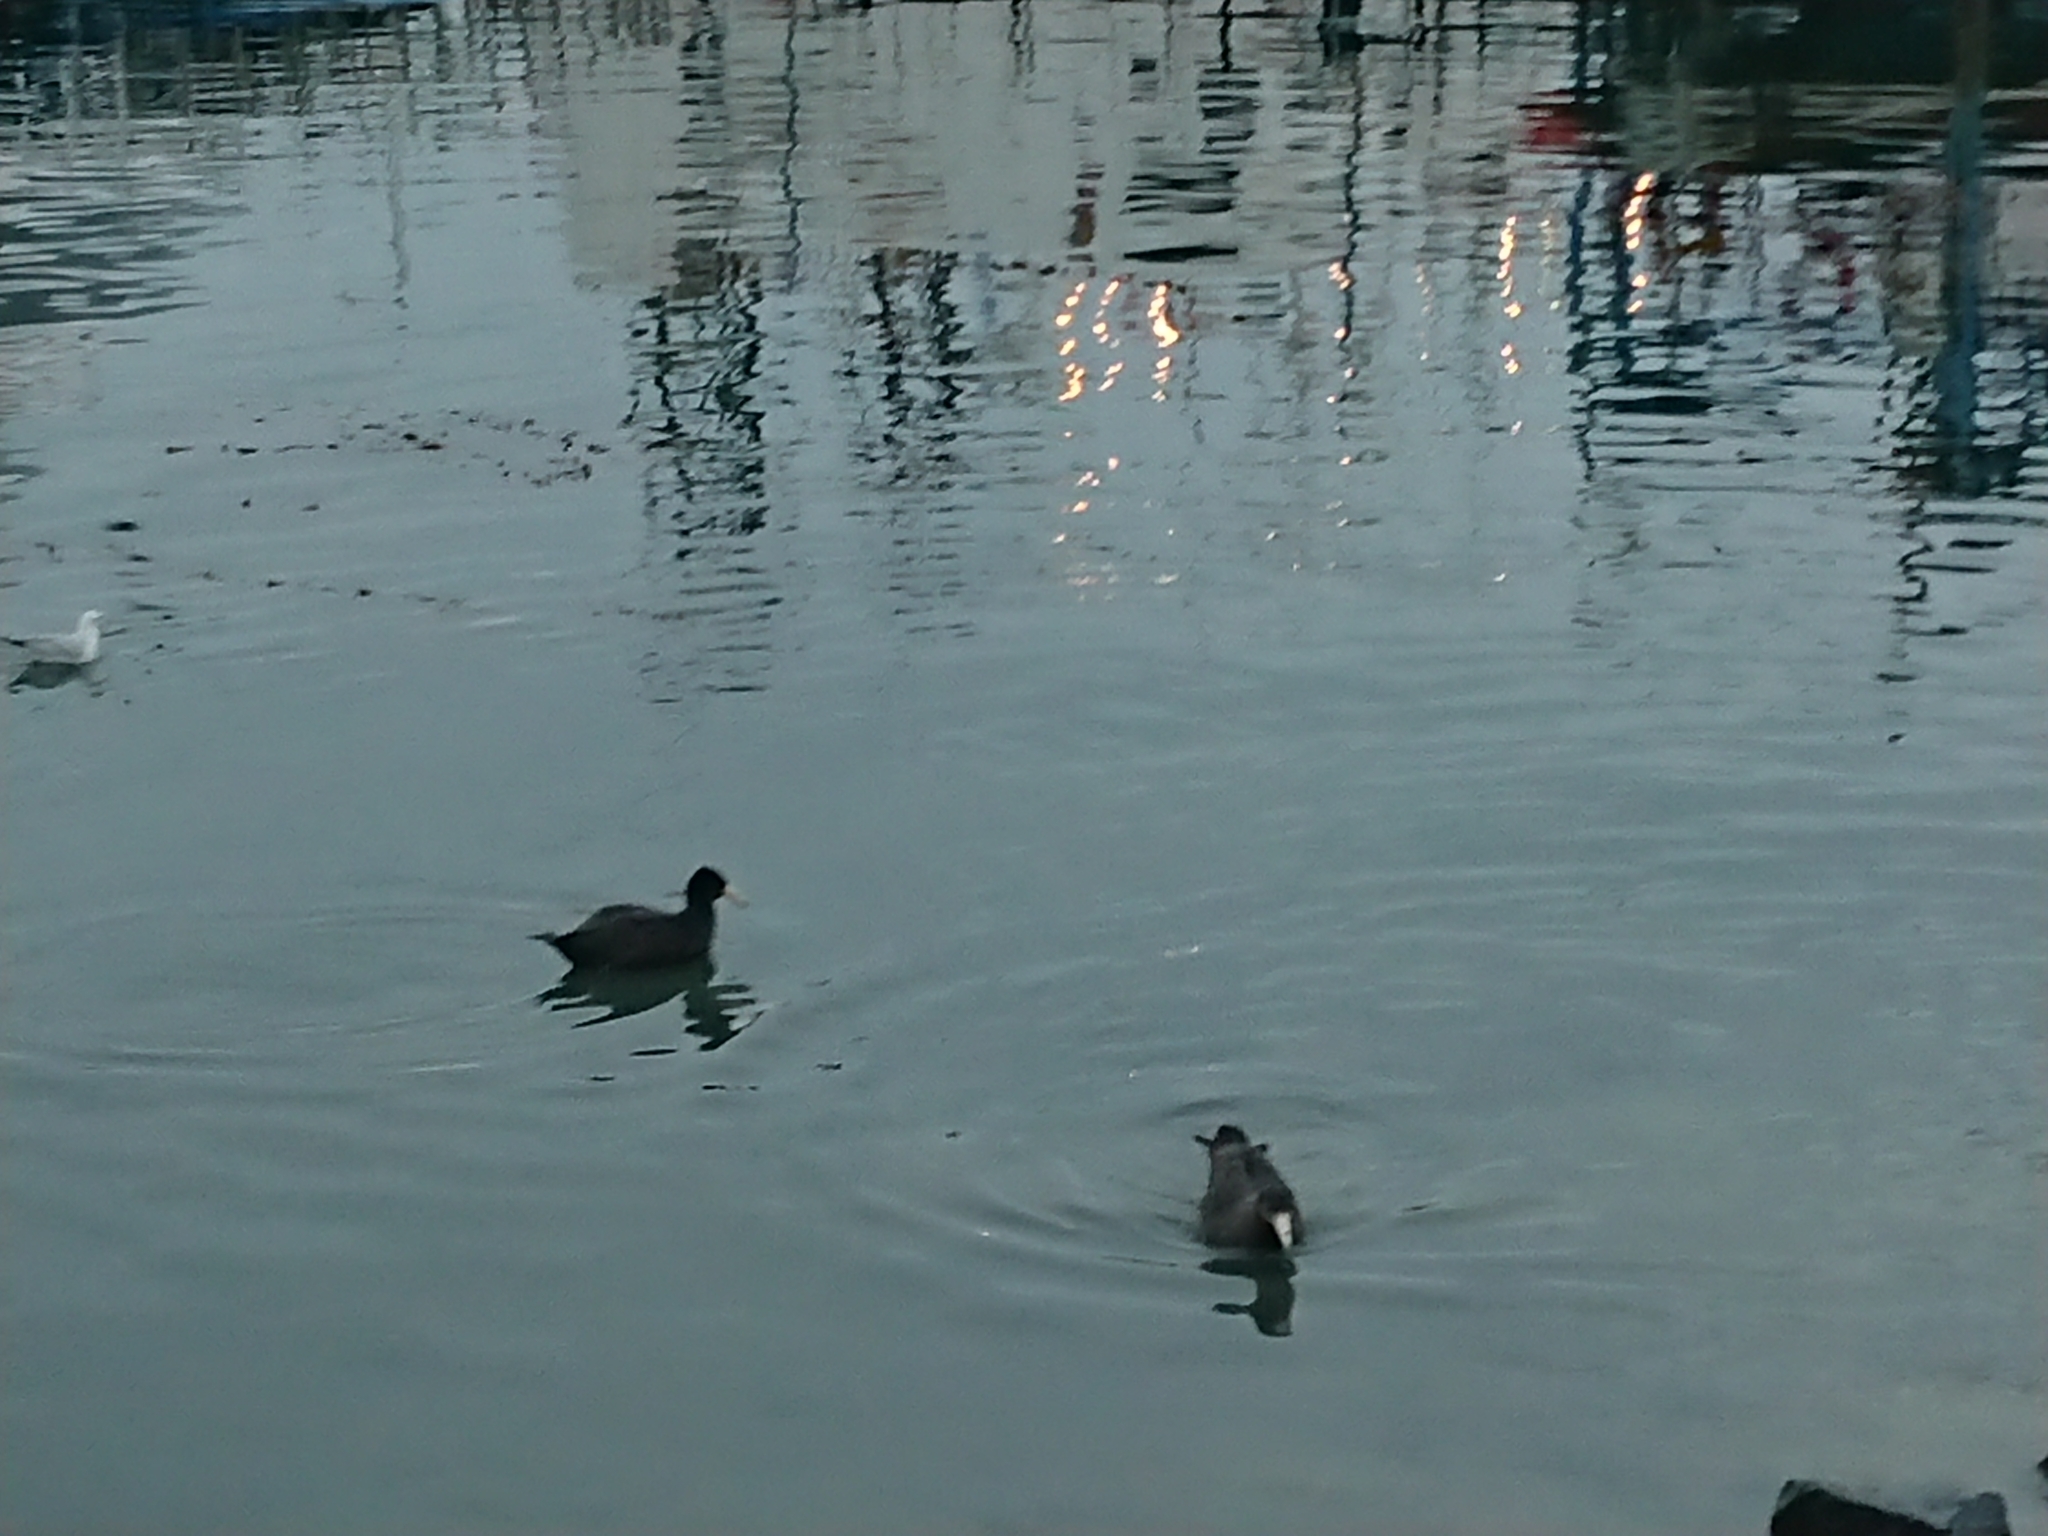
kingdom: Animalia
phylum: Chordata
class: Aves
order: Procellariiformes
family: Procellariidae
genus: Macronectes
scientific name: Macronectes giganteus
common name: Southern giant petrel
